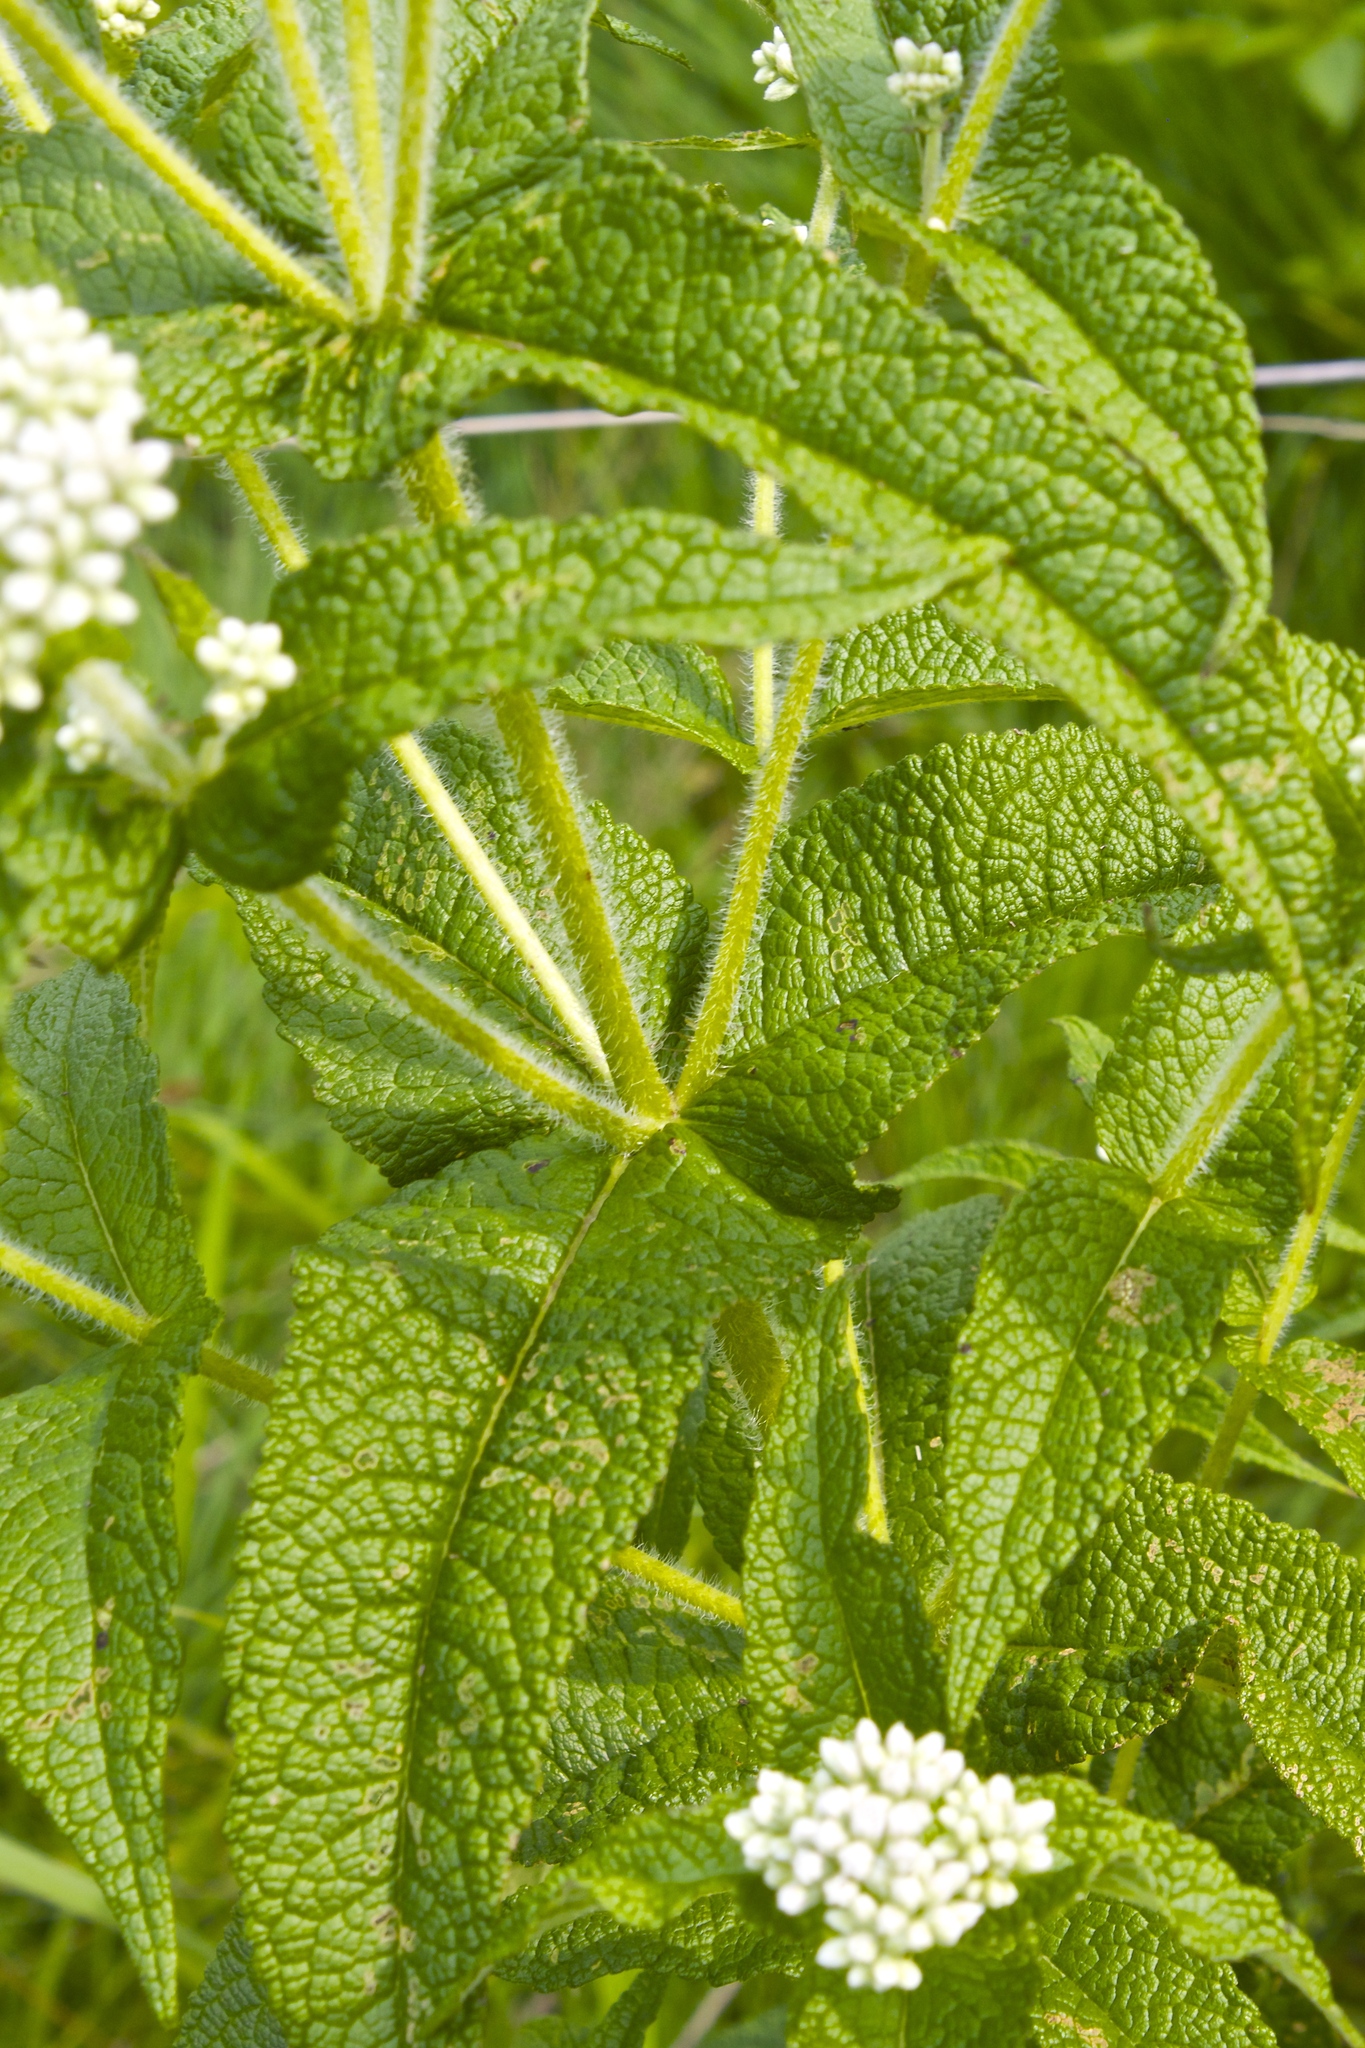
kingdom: Plantae
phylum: Tracheophyta
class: Magnoliopsida
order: Asterales
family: Asteraceae
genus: Eupatorium
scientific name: Eupatorium perfoliatum
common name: Boneset
